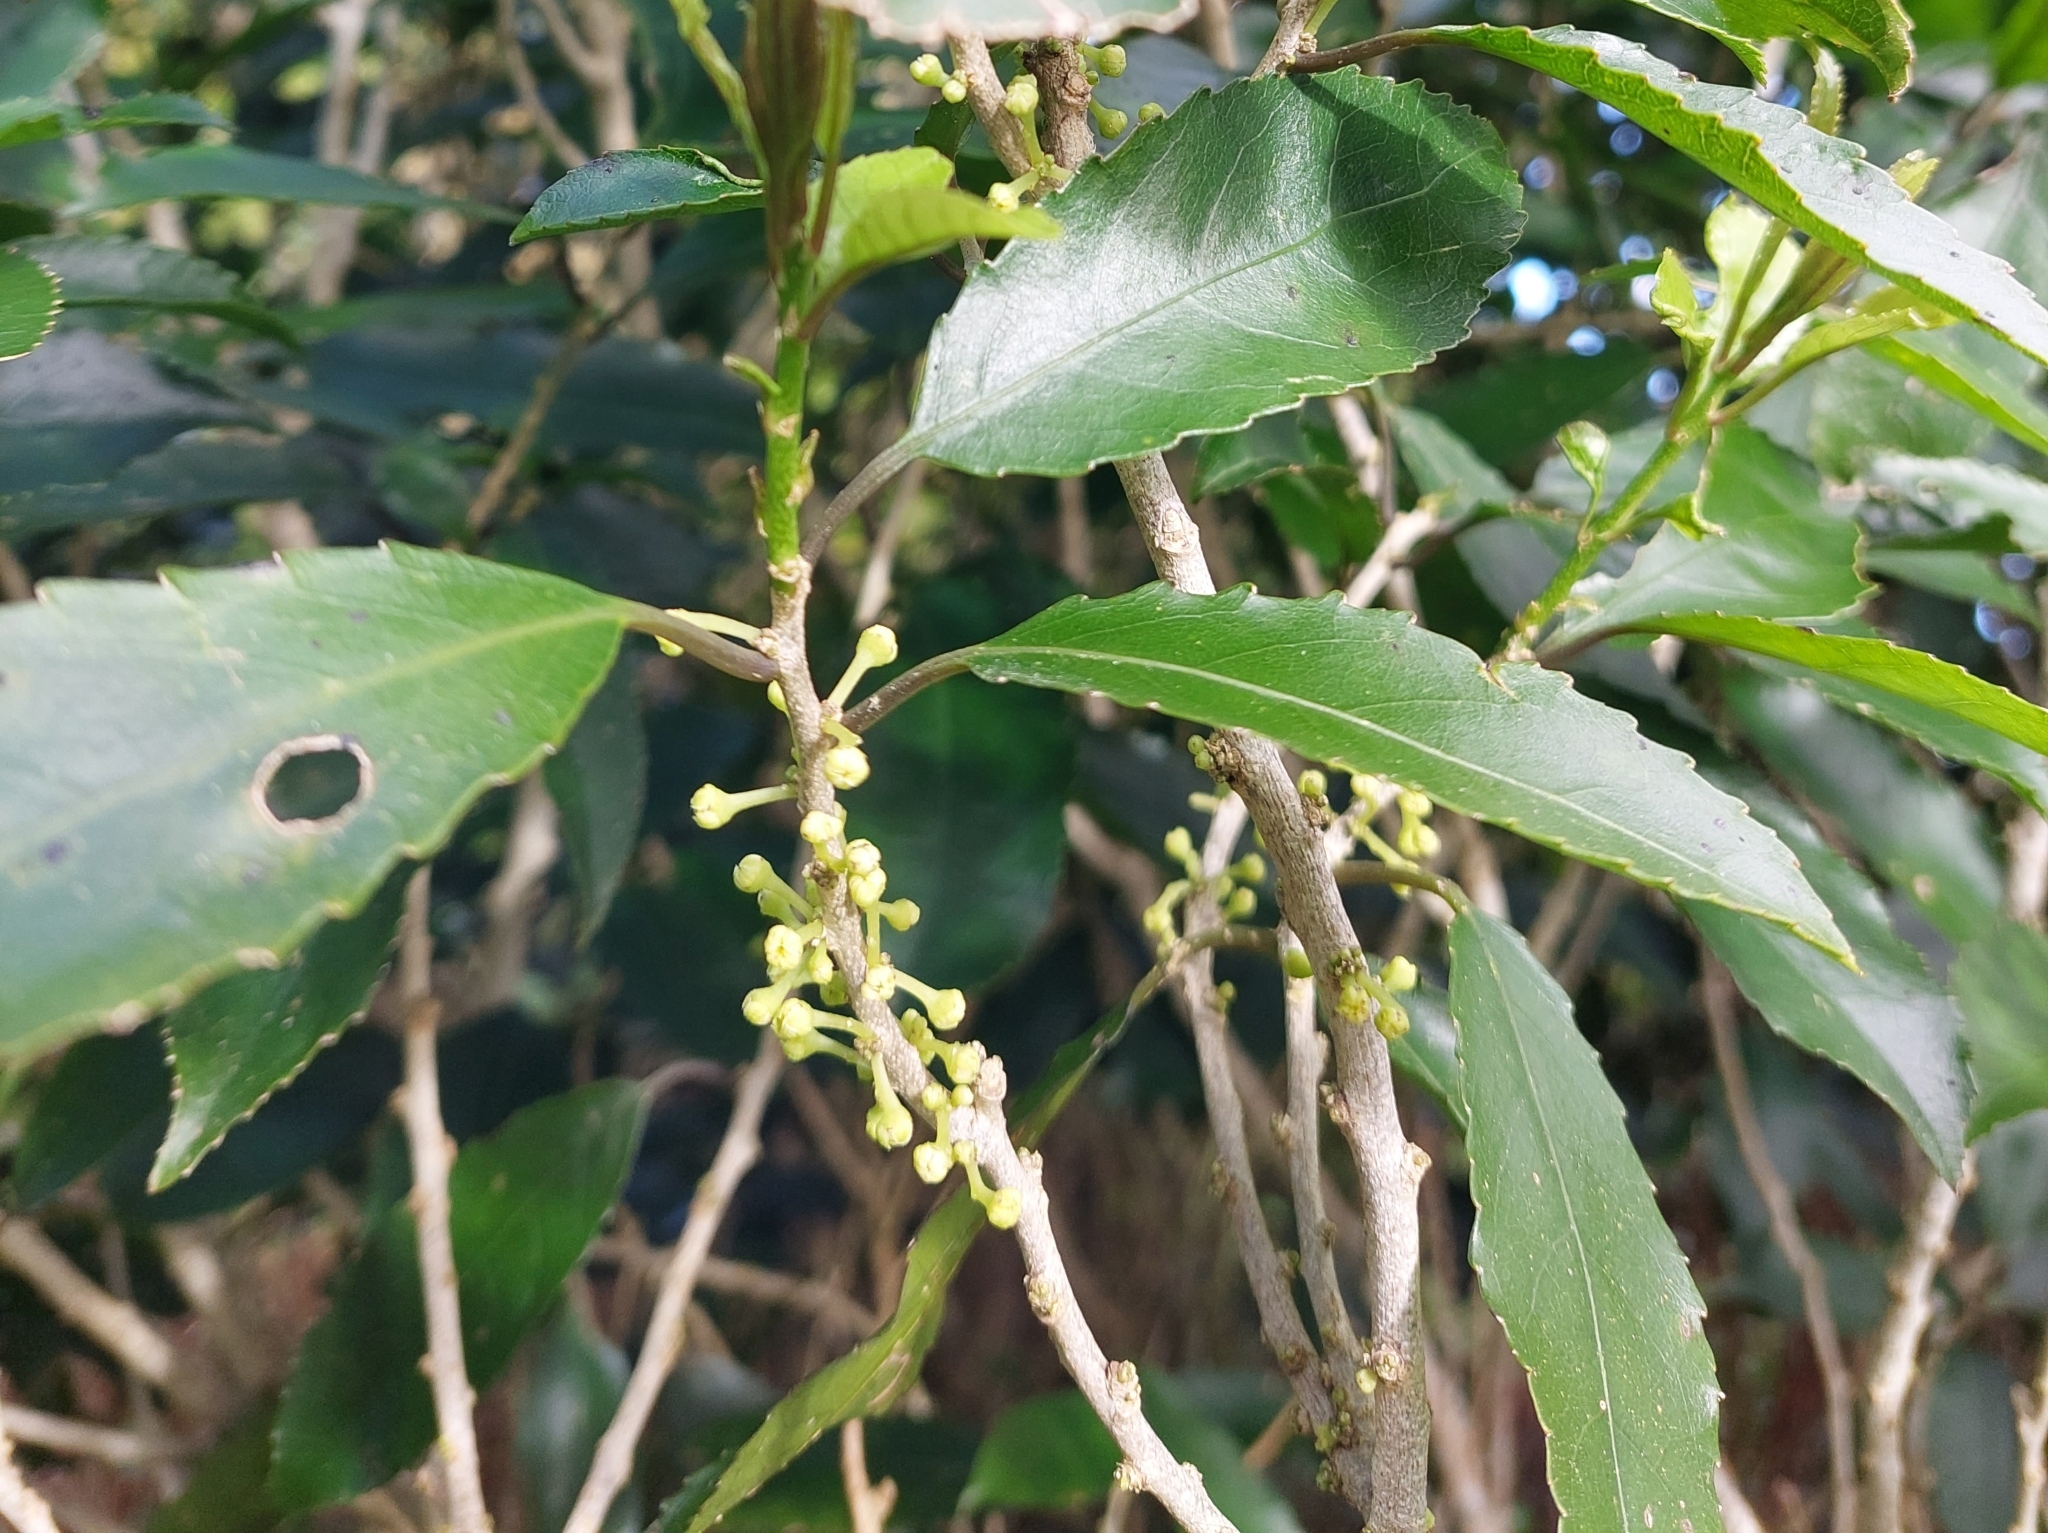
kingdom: Plantae
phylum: Tracheophyta
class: Magnoliopsida
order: Malpighiales
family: Violaceae
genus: Melicytus
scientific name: Melicytus ramiflorus
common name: Mahoe
